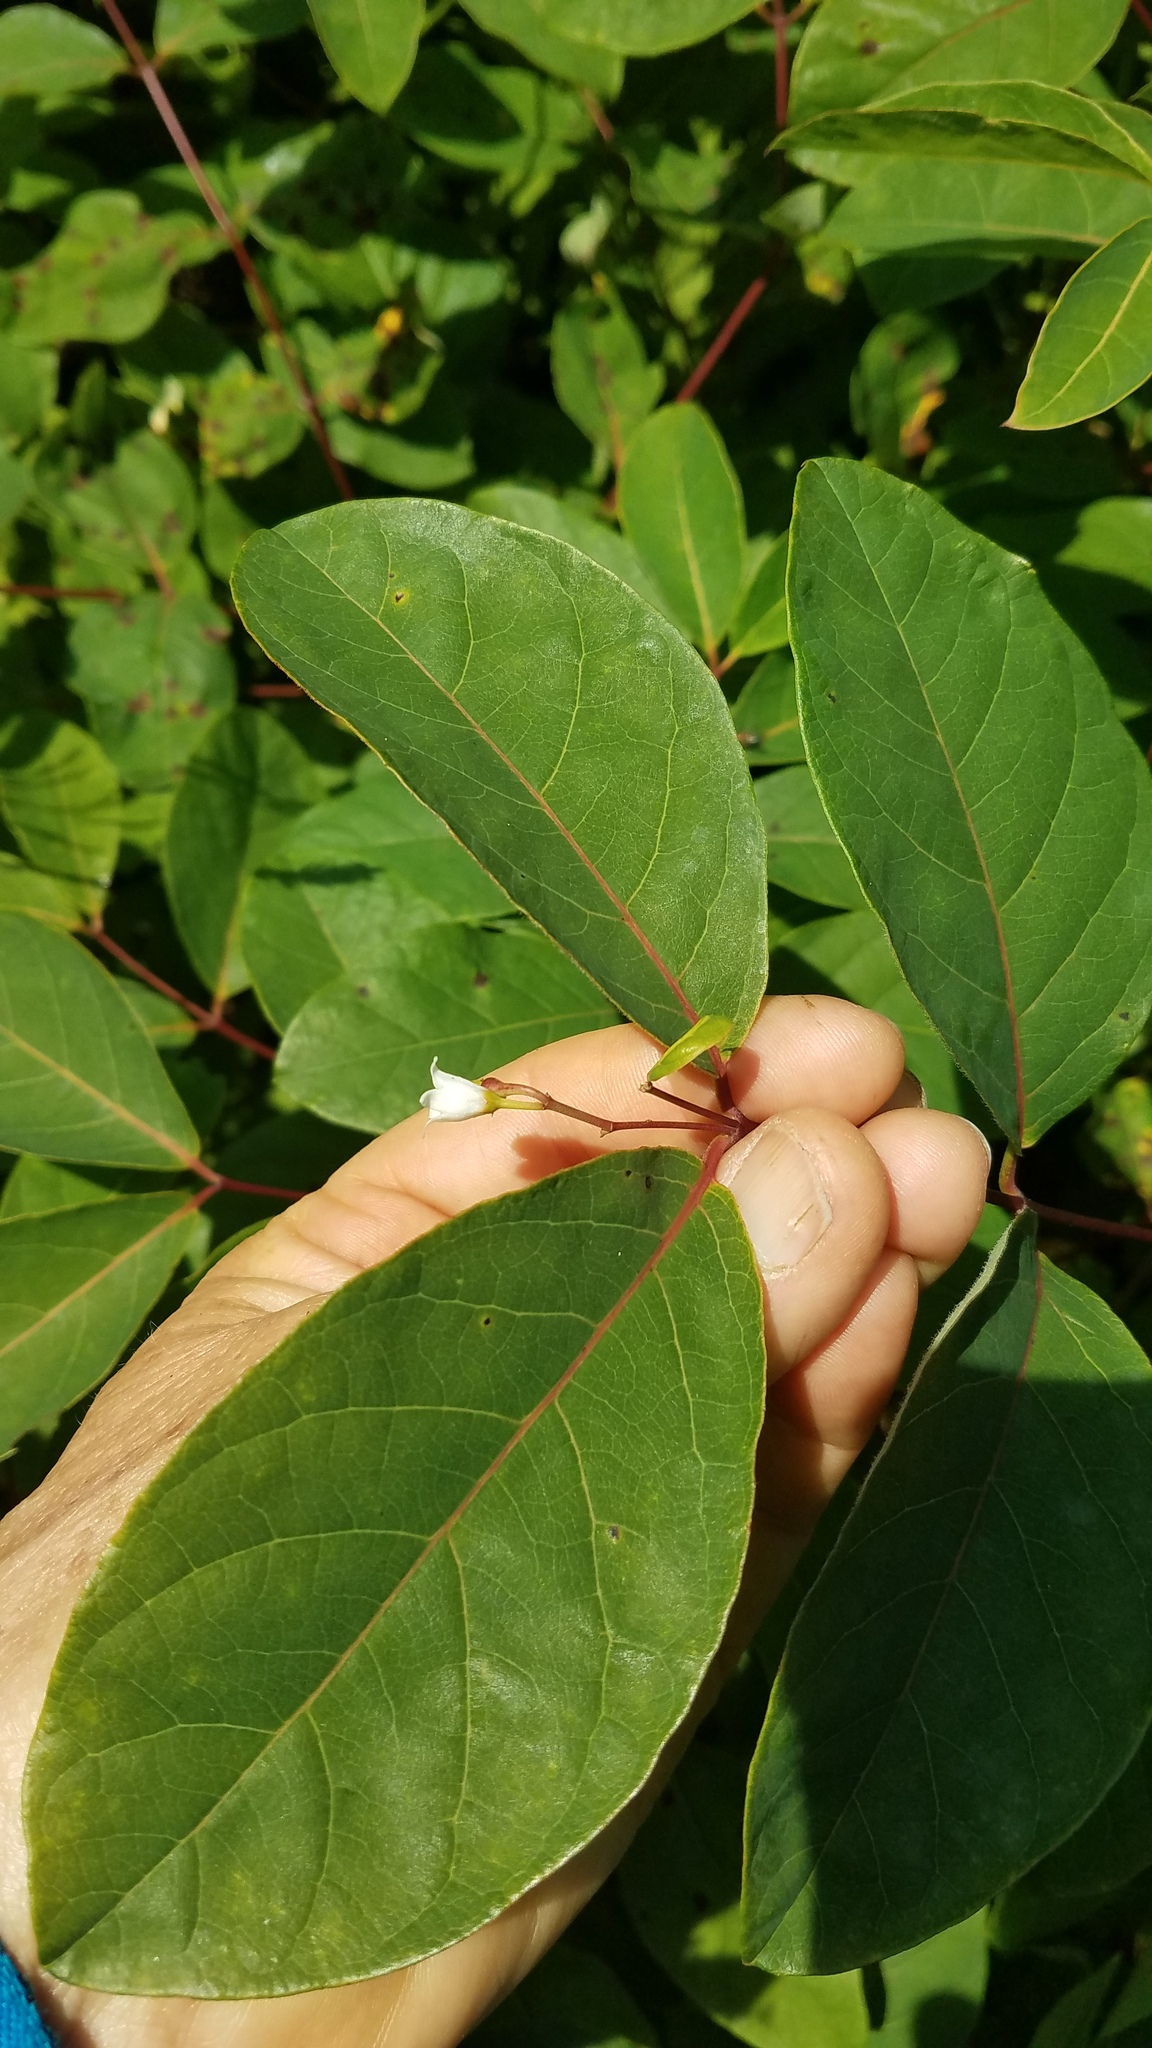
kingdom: Plantae
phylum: Tracheophyta
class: Magnoliopsida
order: Gentianales
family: Apocynaceae
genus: Apocynum
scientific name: Apocynum androsaemifolium
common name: Spreading dogbane
